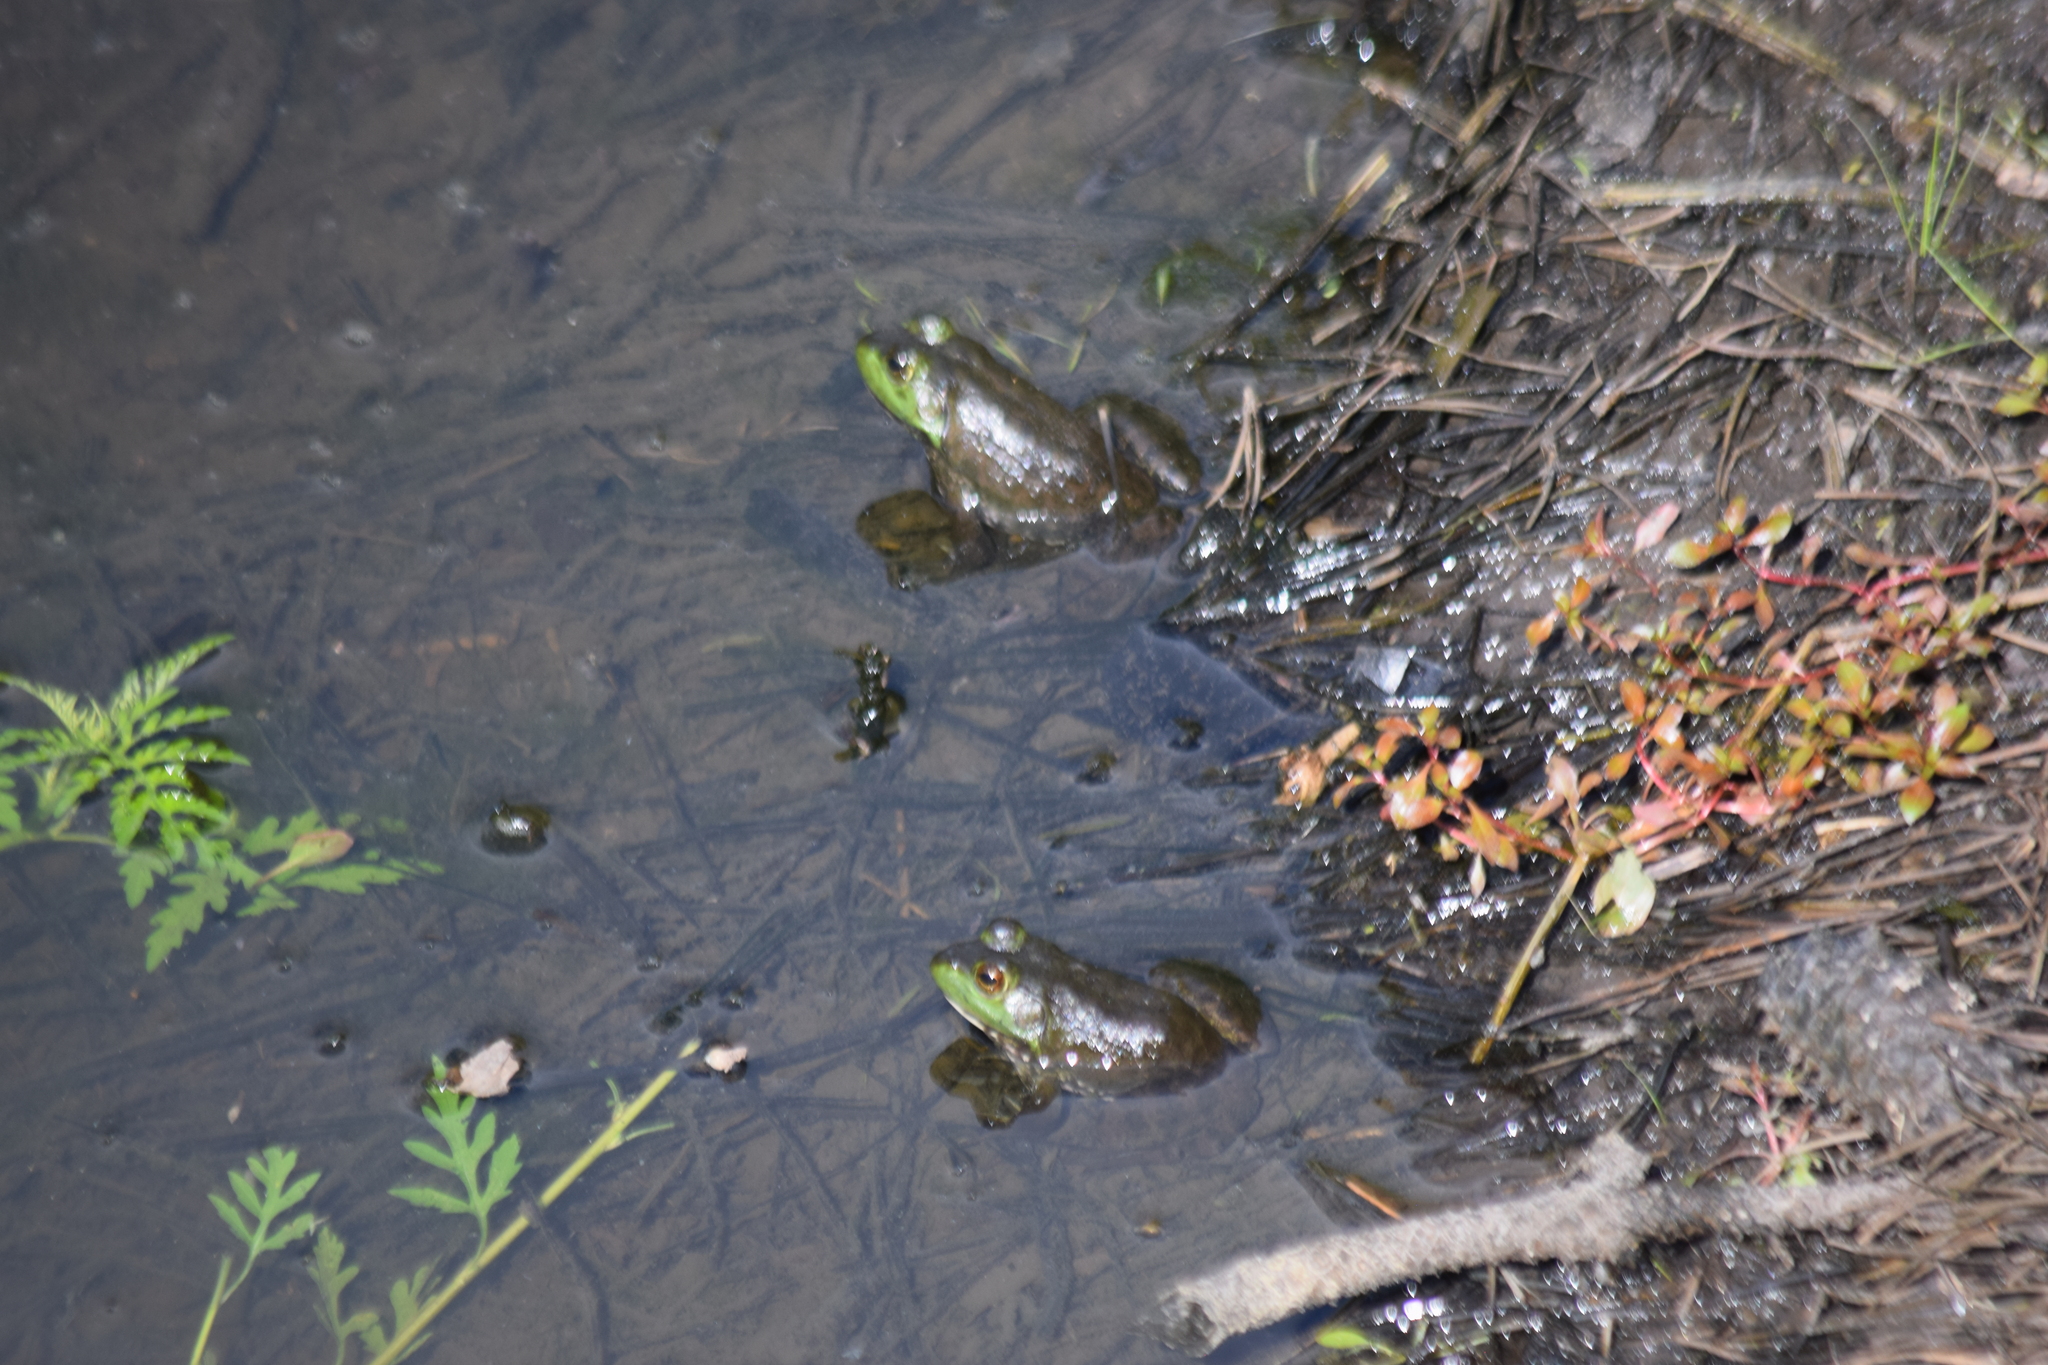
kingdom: Animalia
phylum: Chordata
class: Amphibia
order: Anura
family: Ranidae
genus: Lithobates
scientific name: Lithobates catesbeianus
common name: American bullfrog
